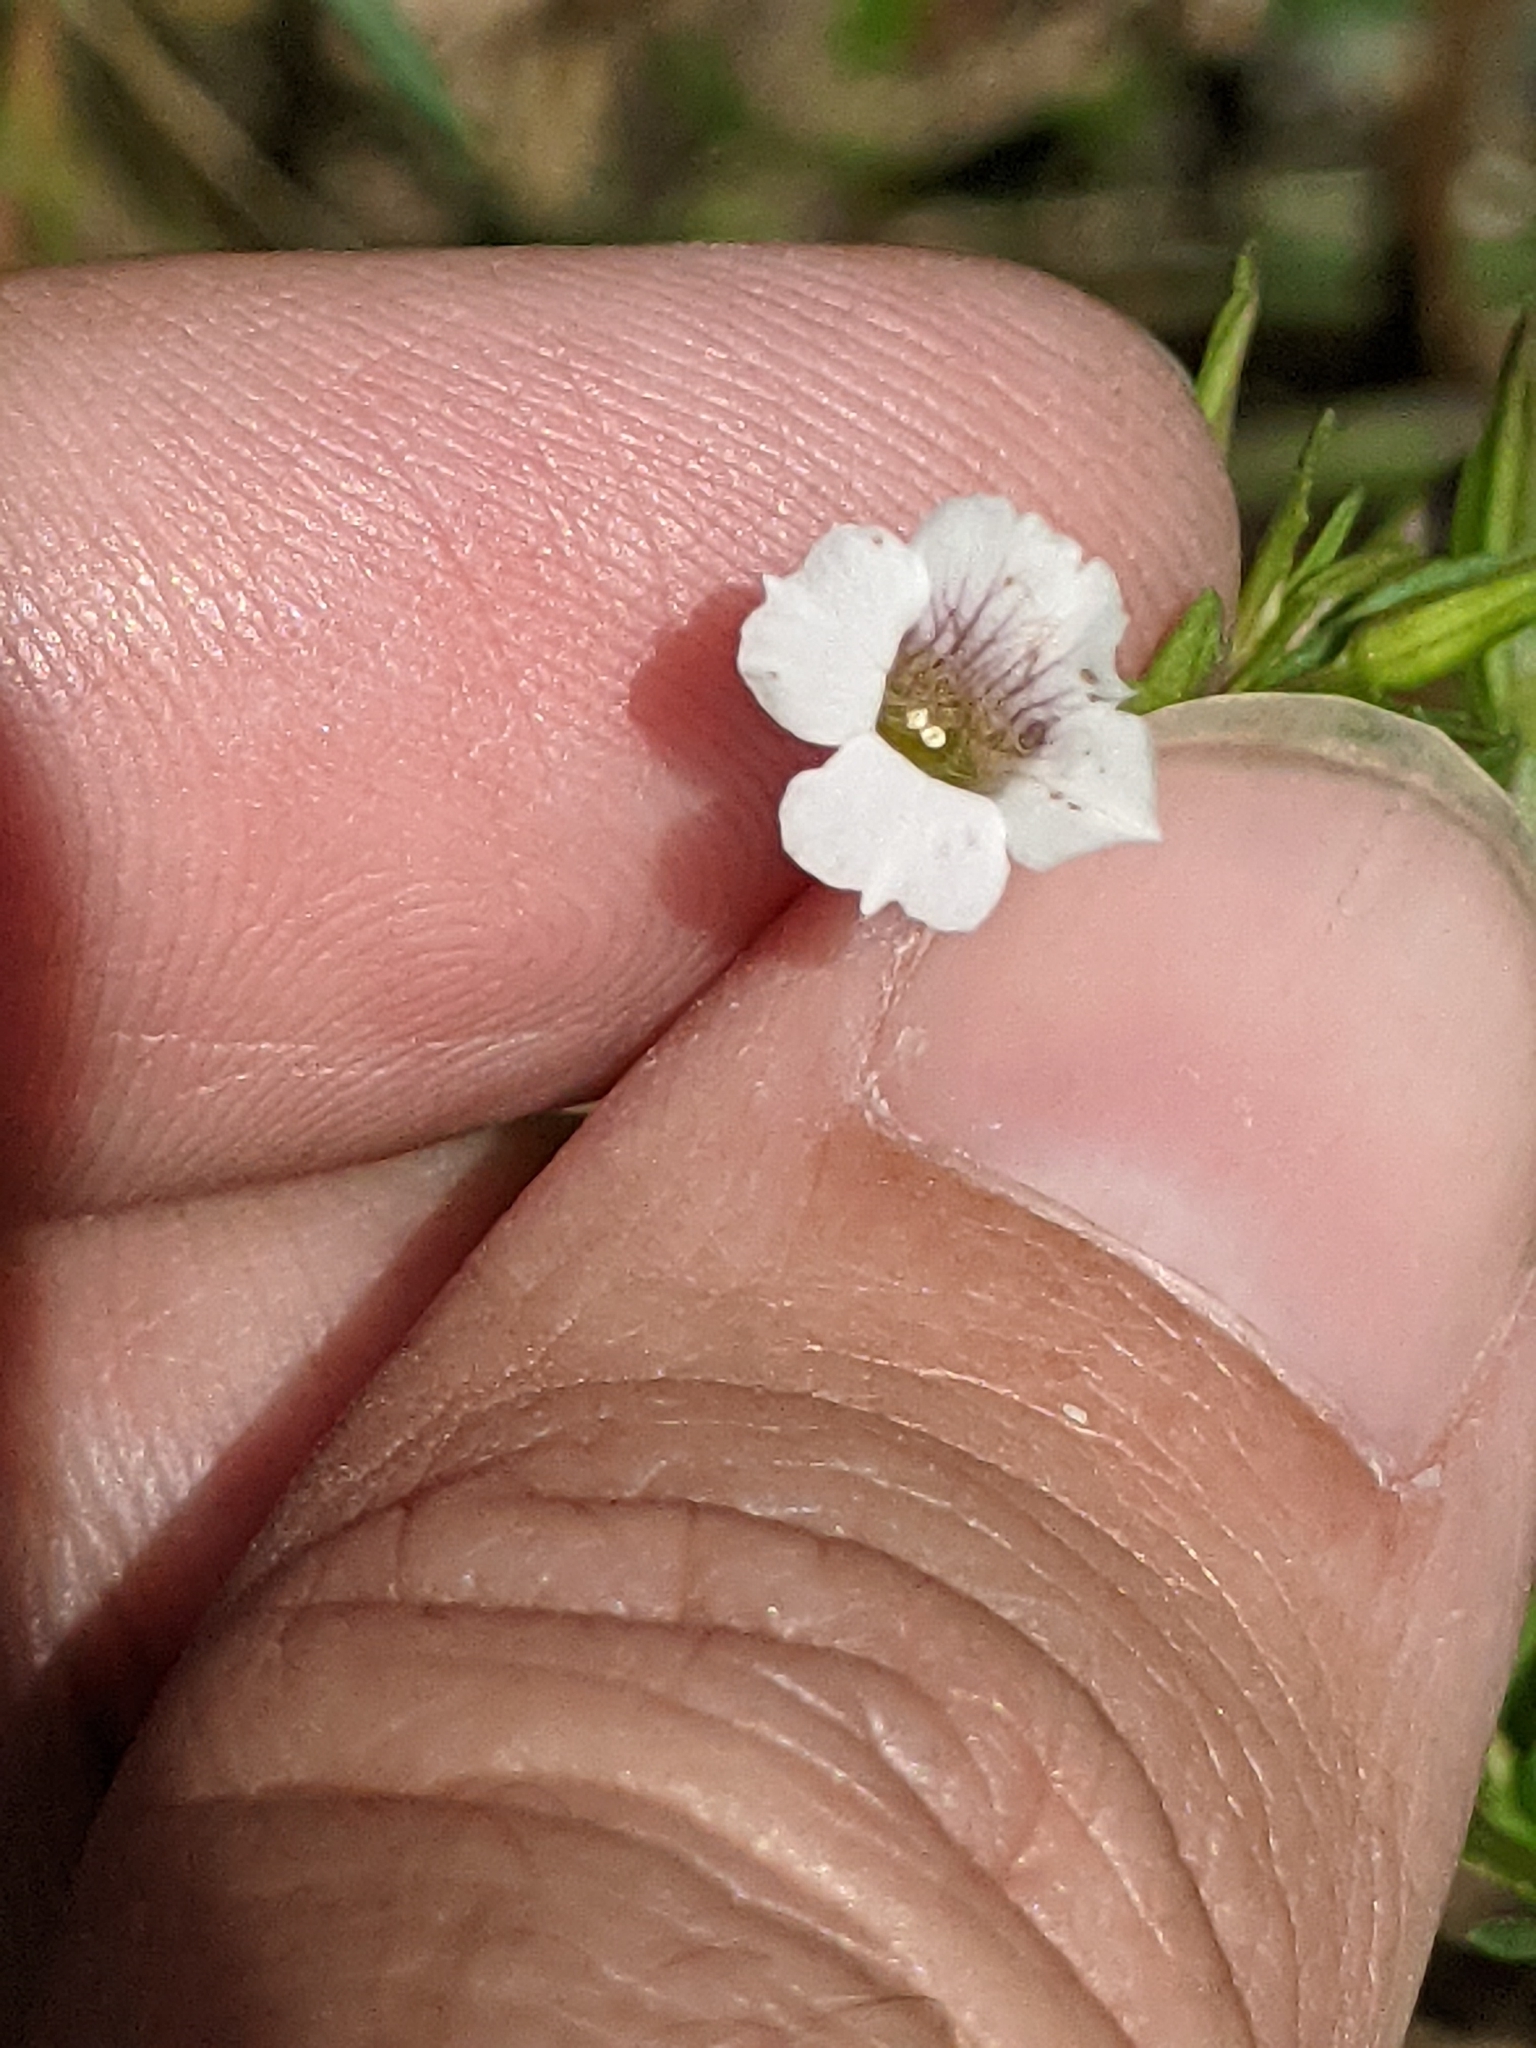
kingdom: Plantae
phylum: Tracheophyta
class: Magnoliopsida
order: Lamiales
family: Plantaginaceae
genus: Mecardonia
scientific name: Mecardonia acuminata
